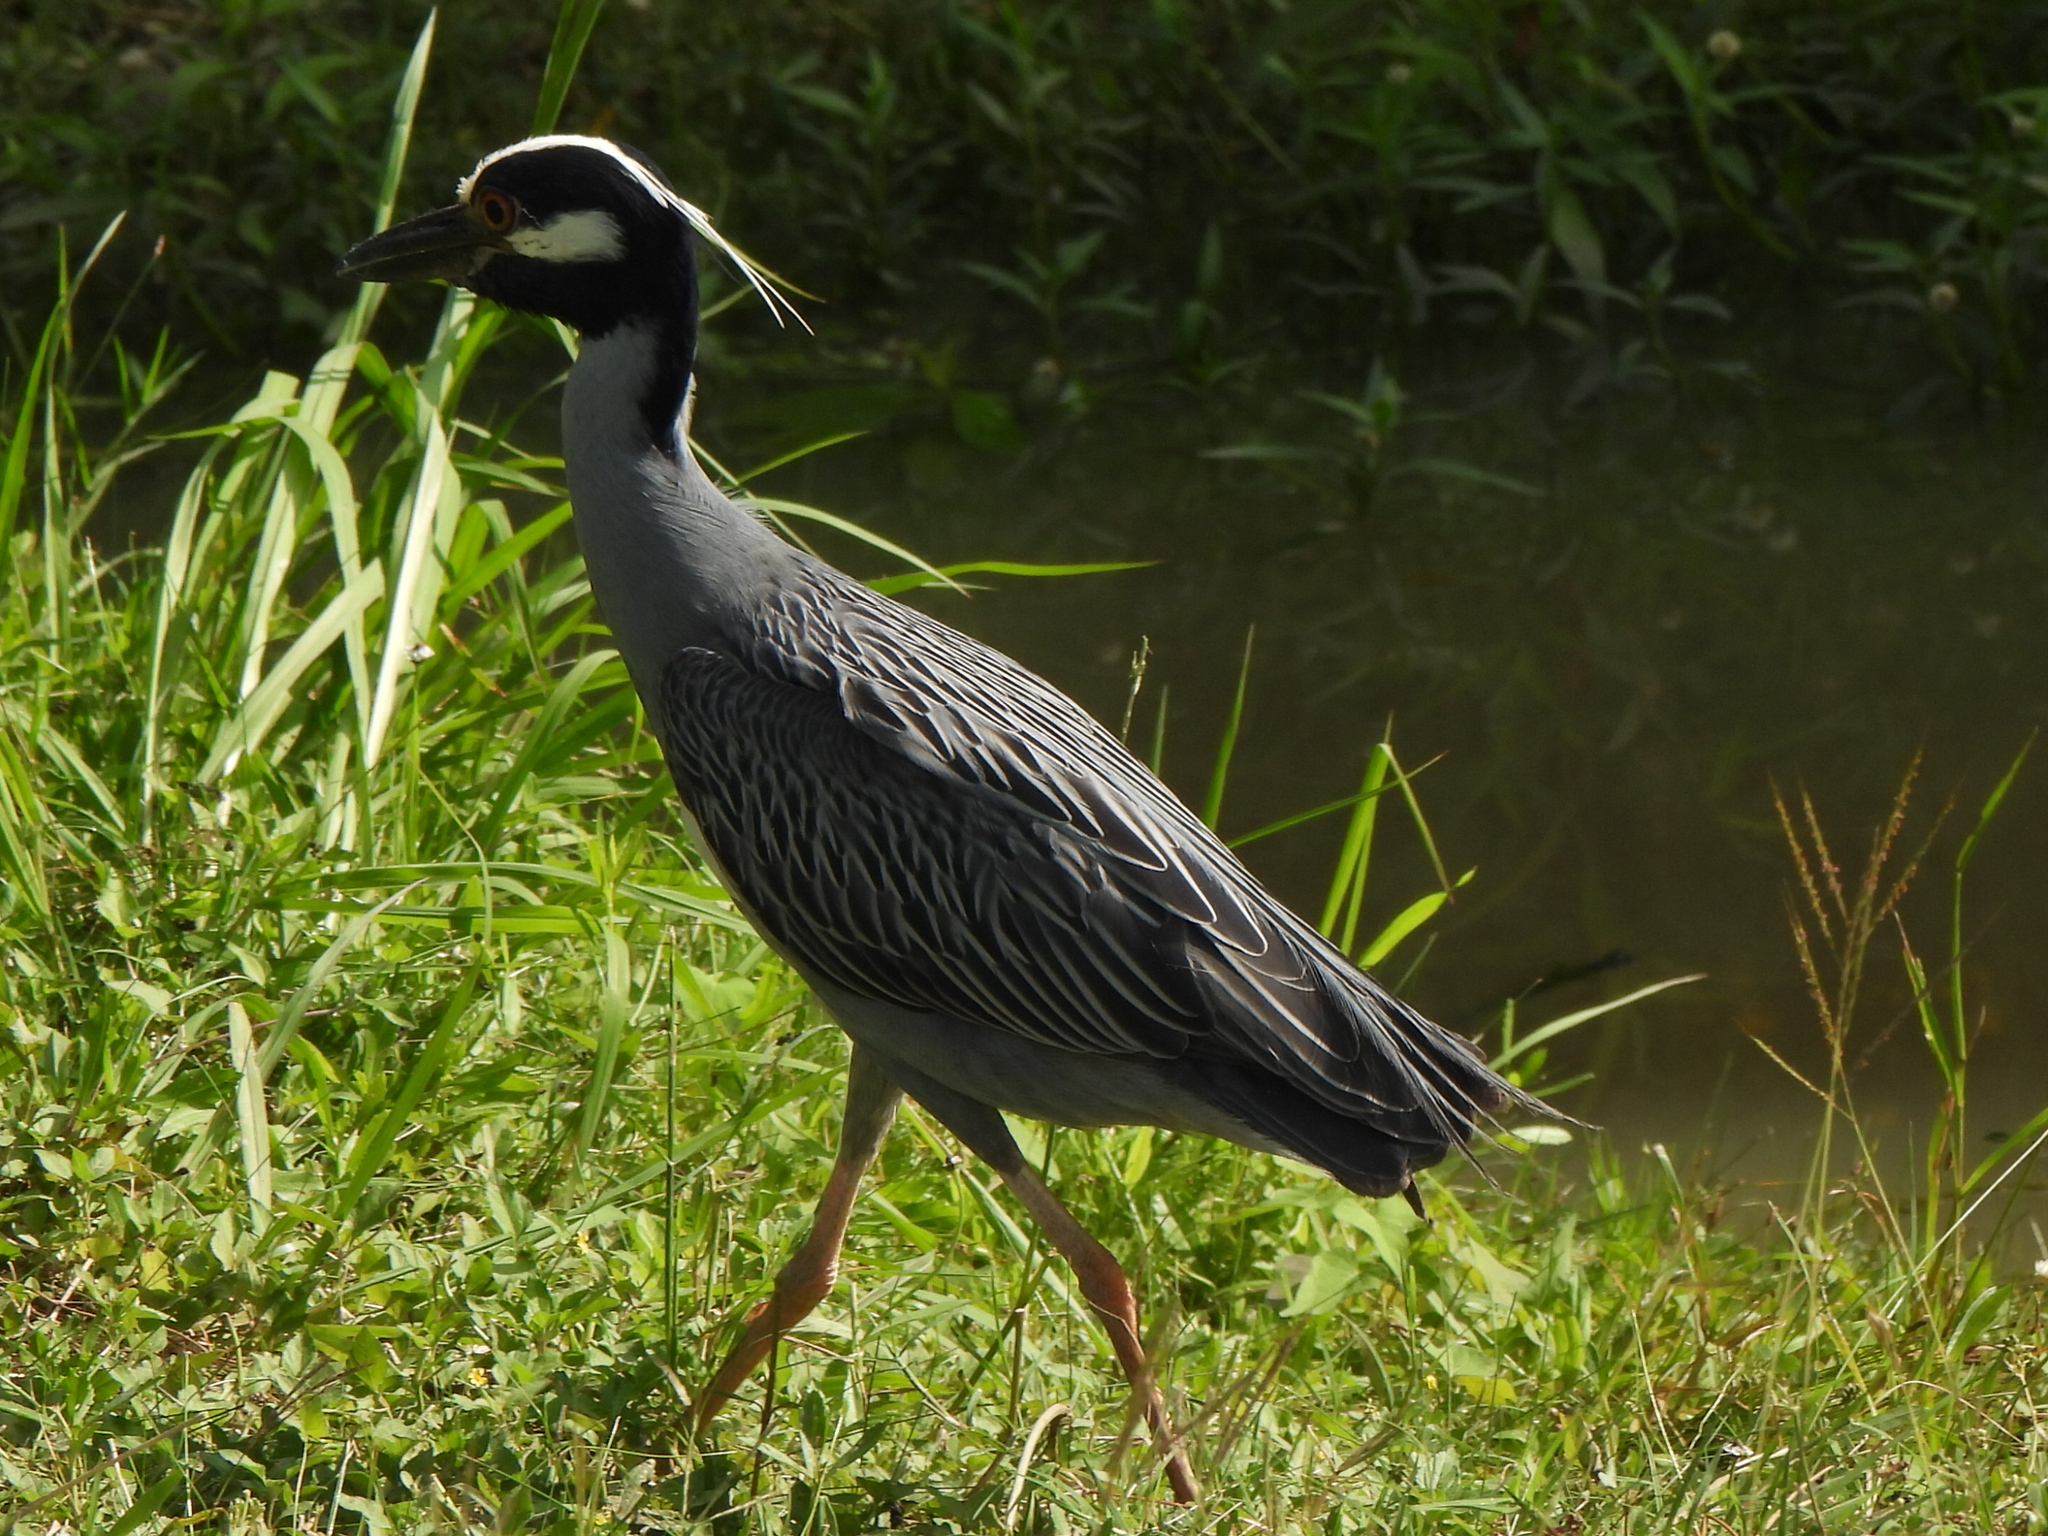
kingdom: Animalia
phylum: Chordata
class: Aves
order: Pelecaniformes
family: Ardeidae
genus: Nyctanassa
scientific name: Nyctanassa violacea
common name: Yellow-crowned night heron
